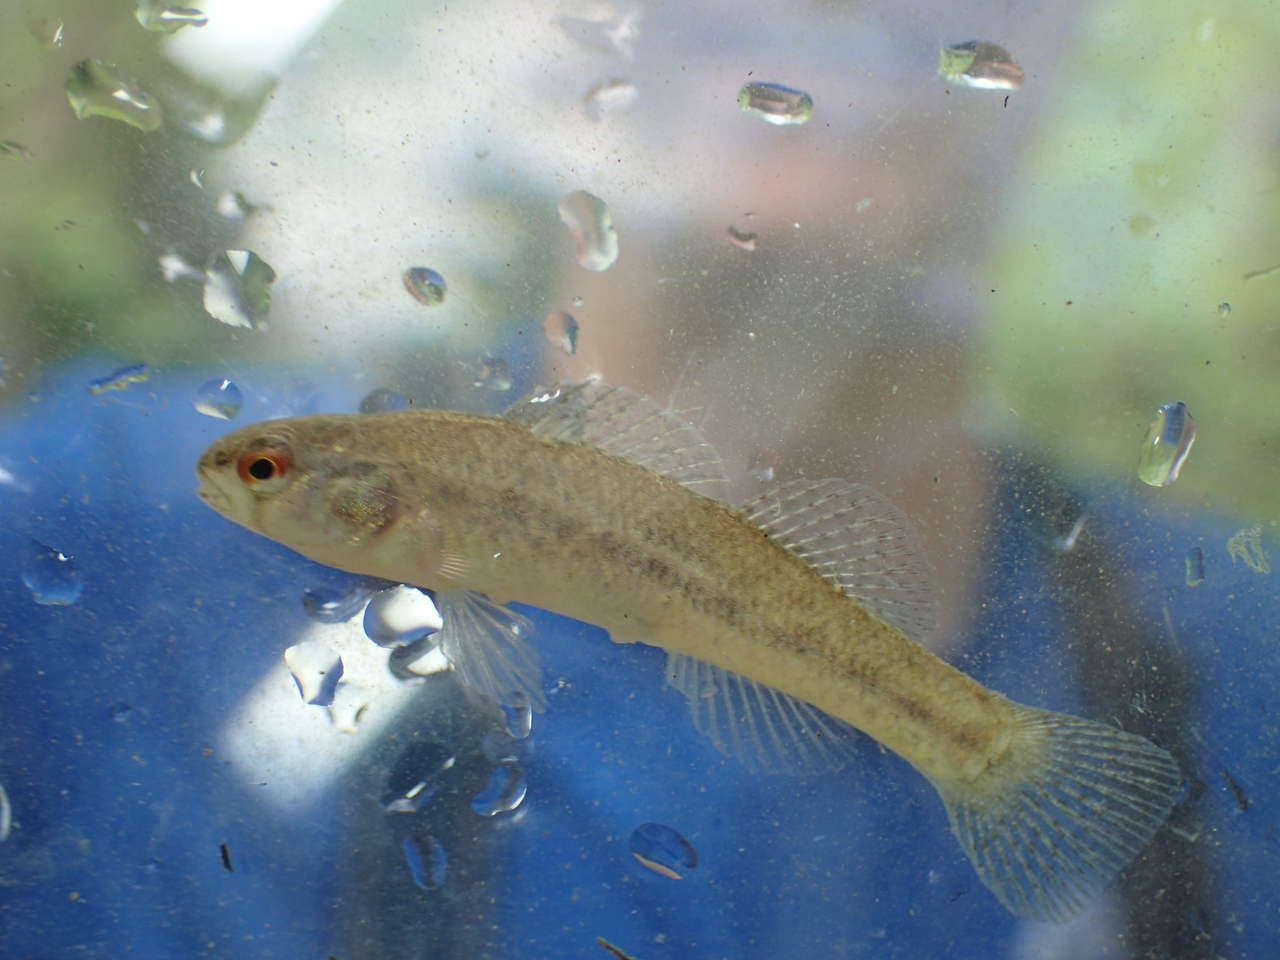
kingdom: Animalia
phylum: Chordata
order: Perciformes
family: Percidae
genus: Etheostoma
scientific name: Etheostoma phytophilum
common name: Rush darter
